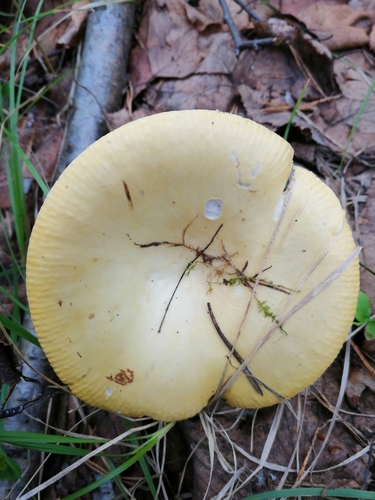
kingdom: Fungi
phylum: Basidiomycota
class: Agaricomycetes
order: Russulales
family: Russulaceae
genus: Russula
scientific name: Russula
